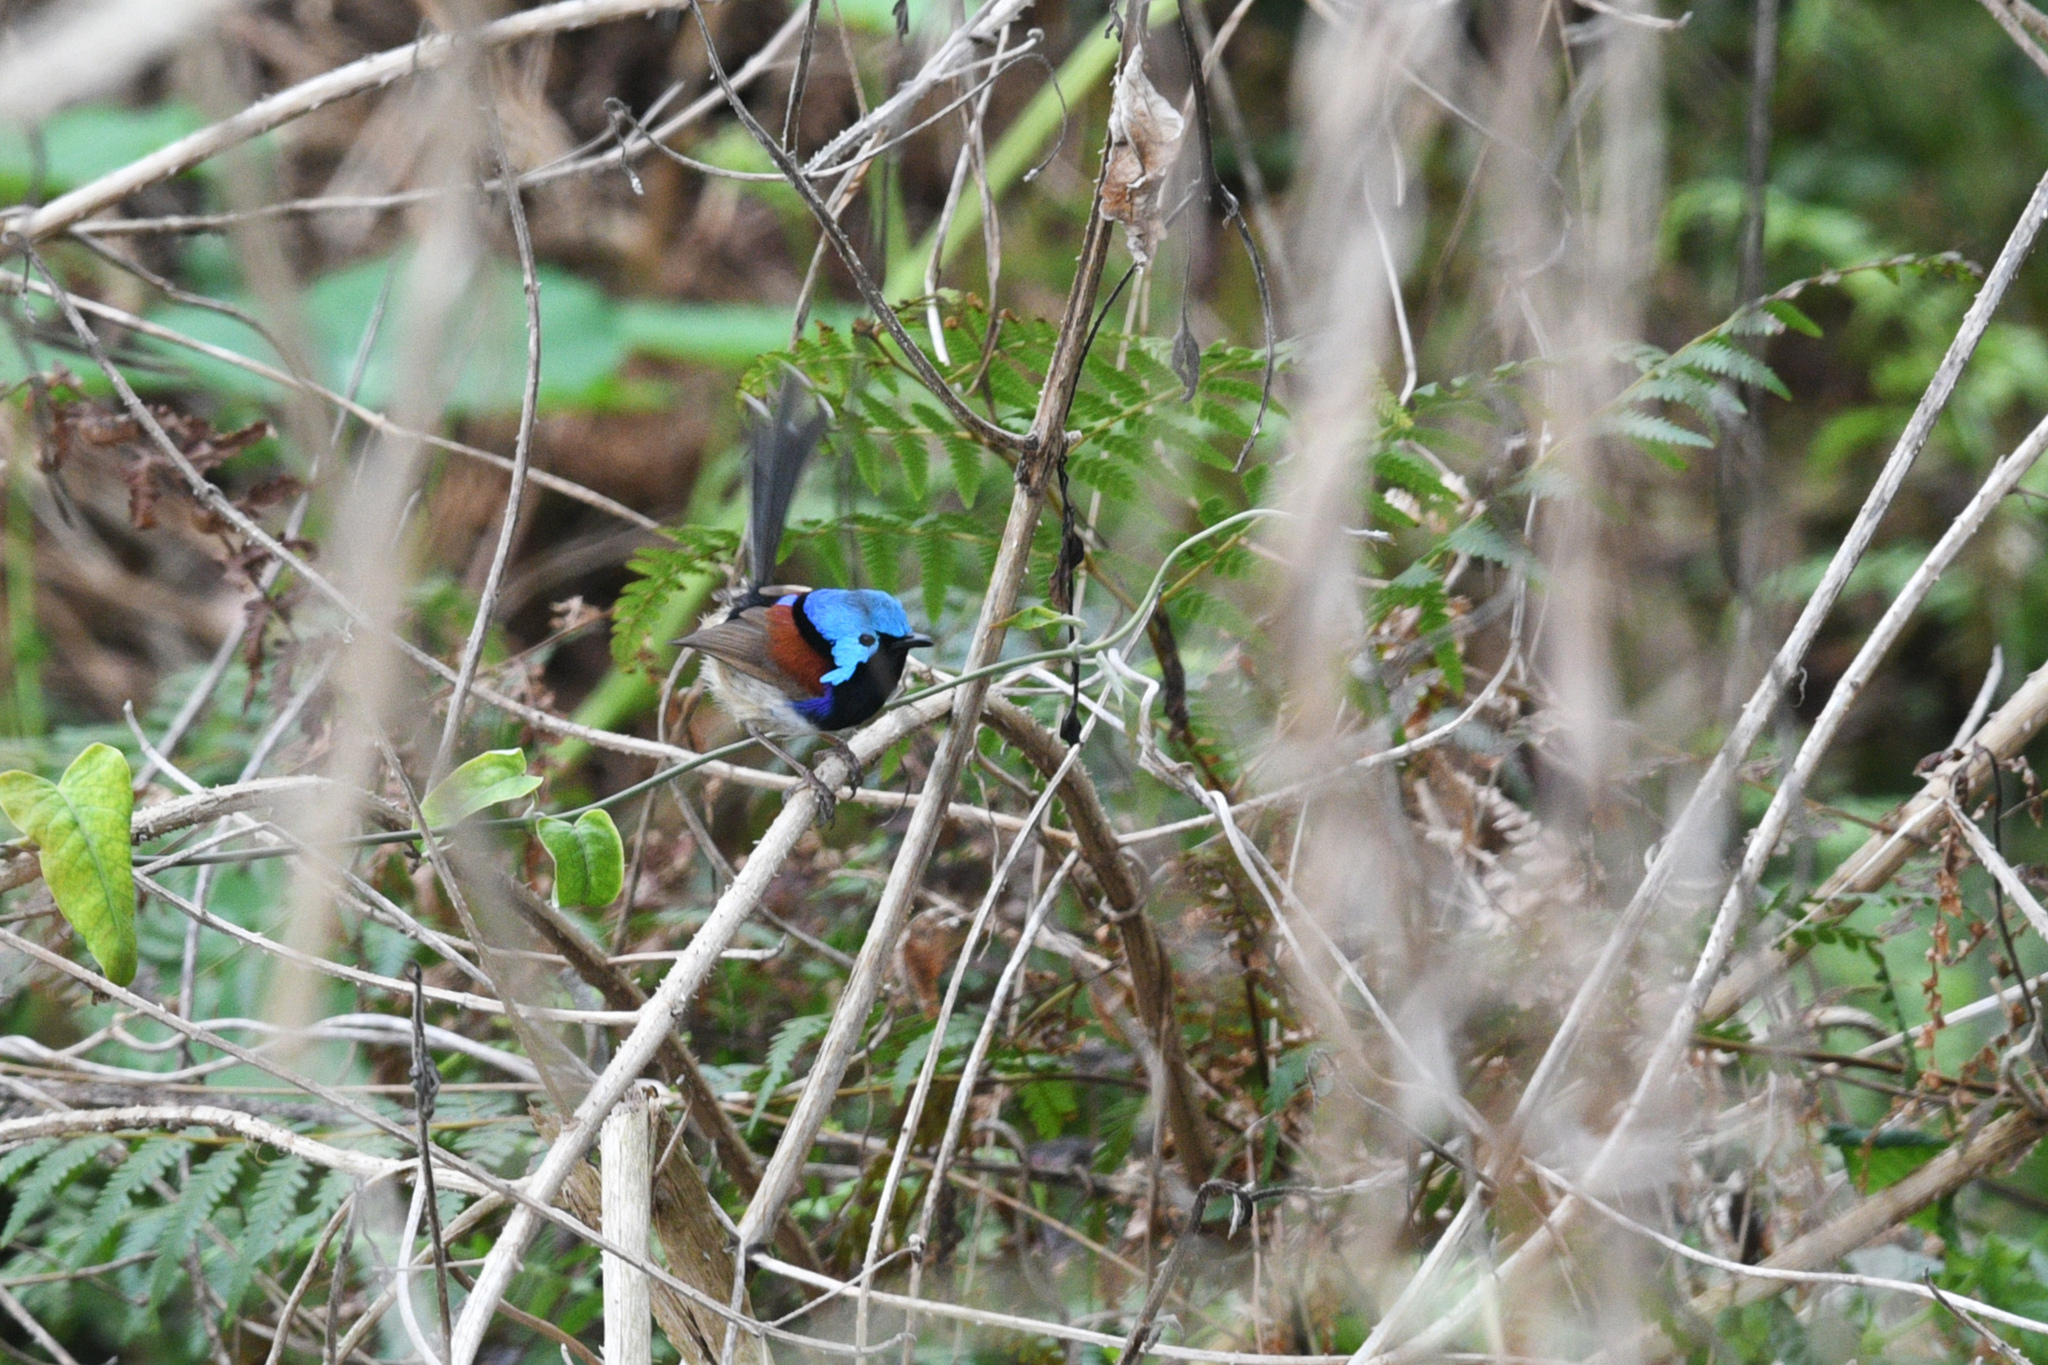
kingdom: Animalia
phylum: Chordata
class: Aves
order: Passeriformes
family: Maluridae
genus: Malurus
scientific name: Malurus lamberti
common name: Variegated fairywren
